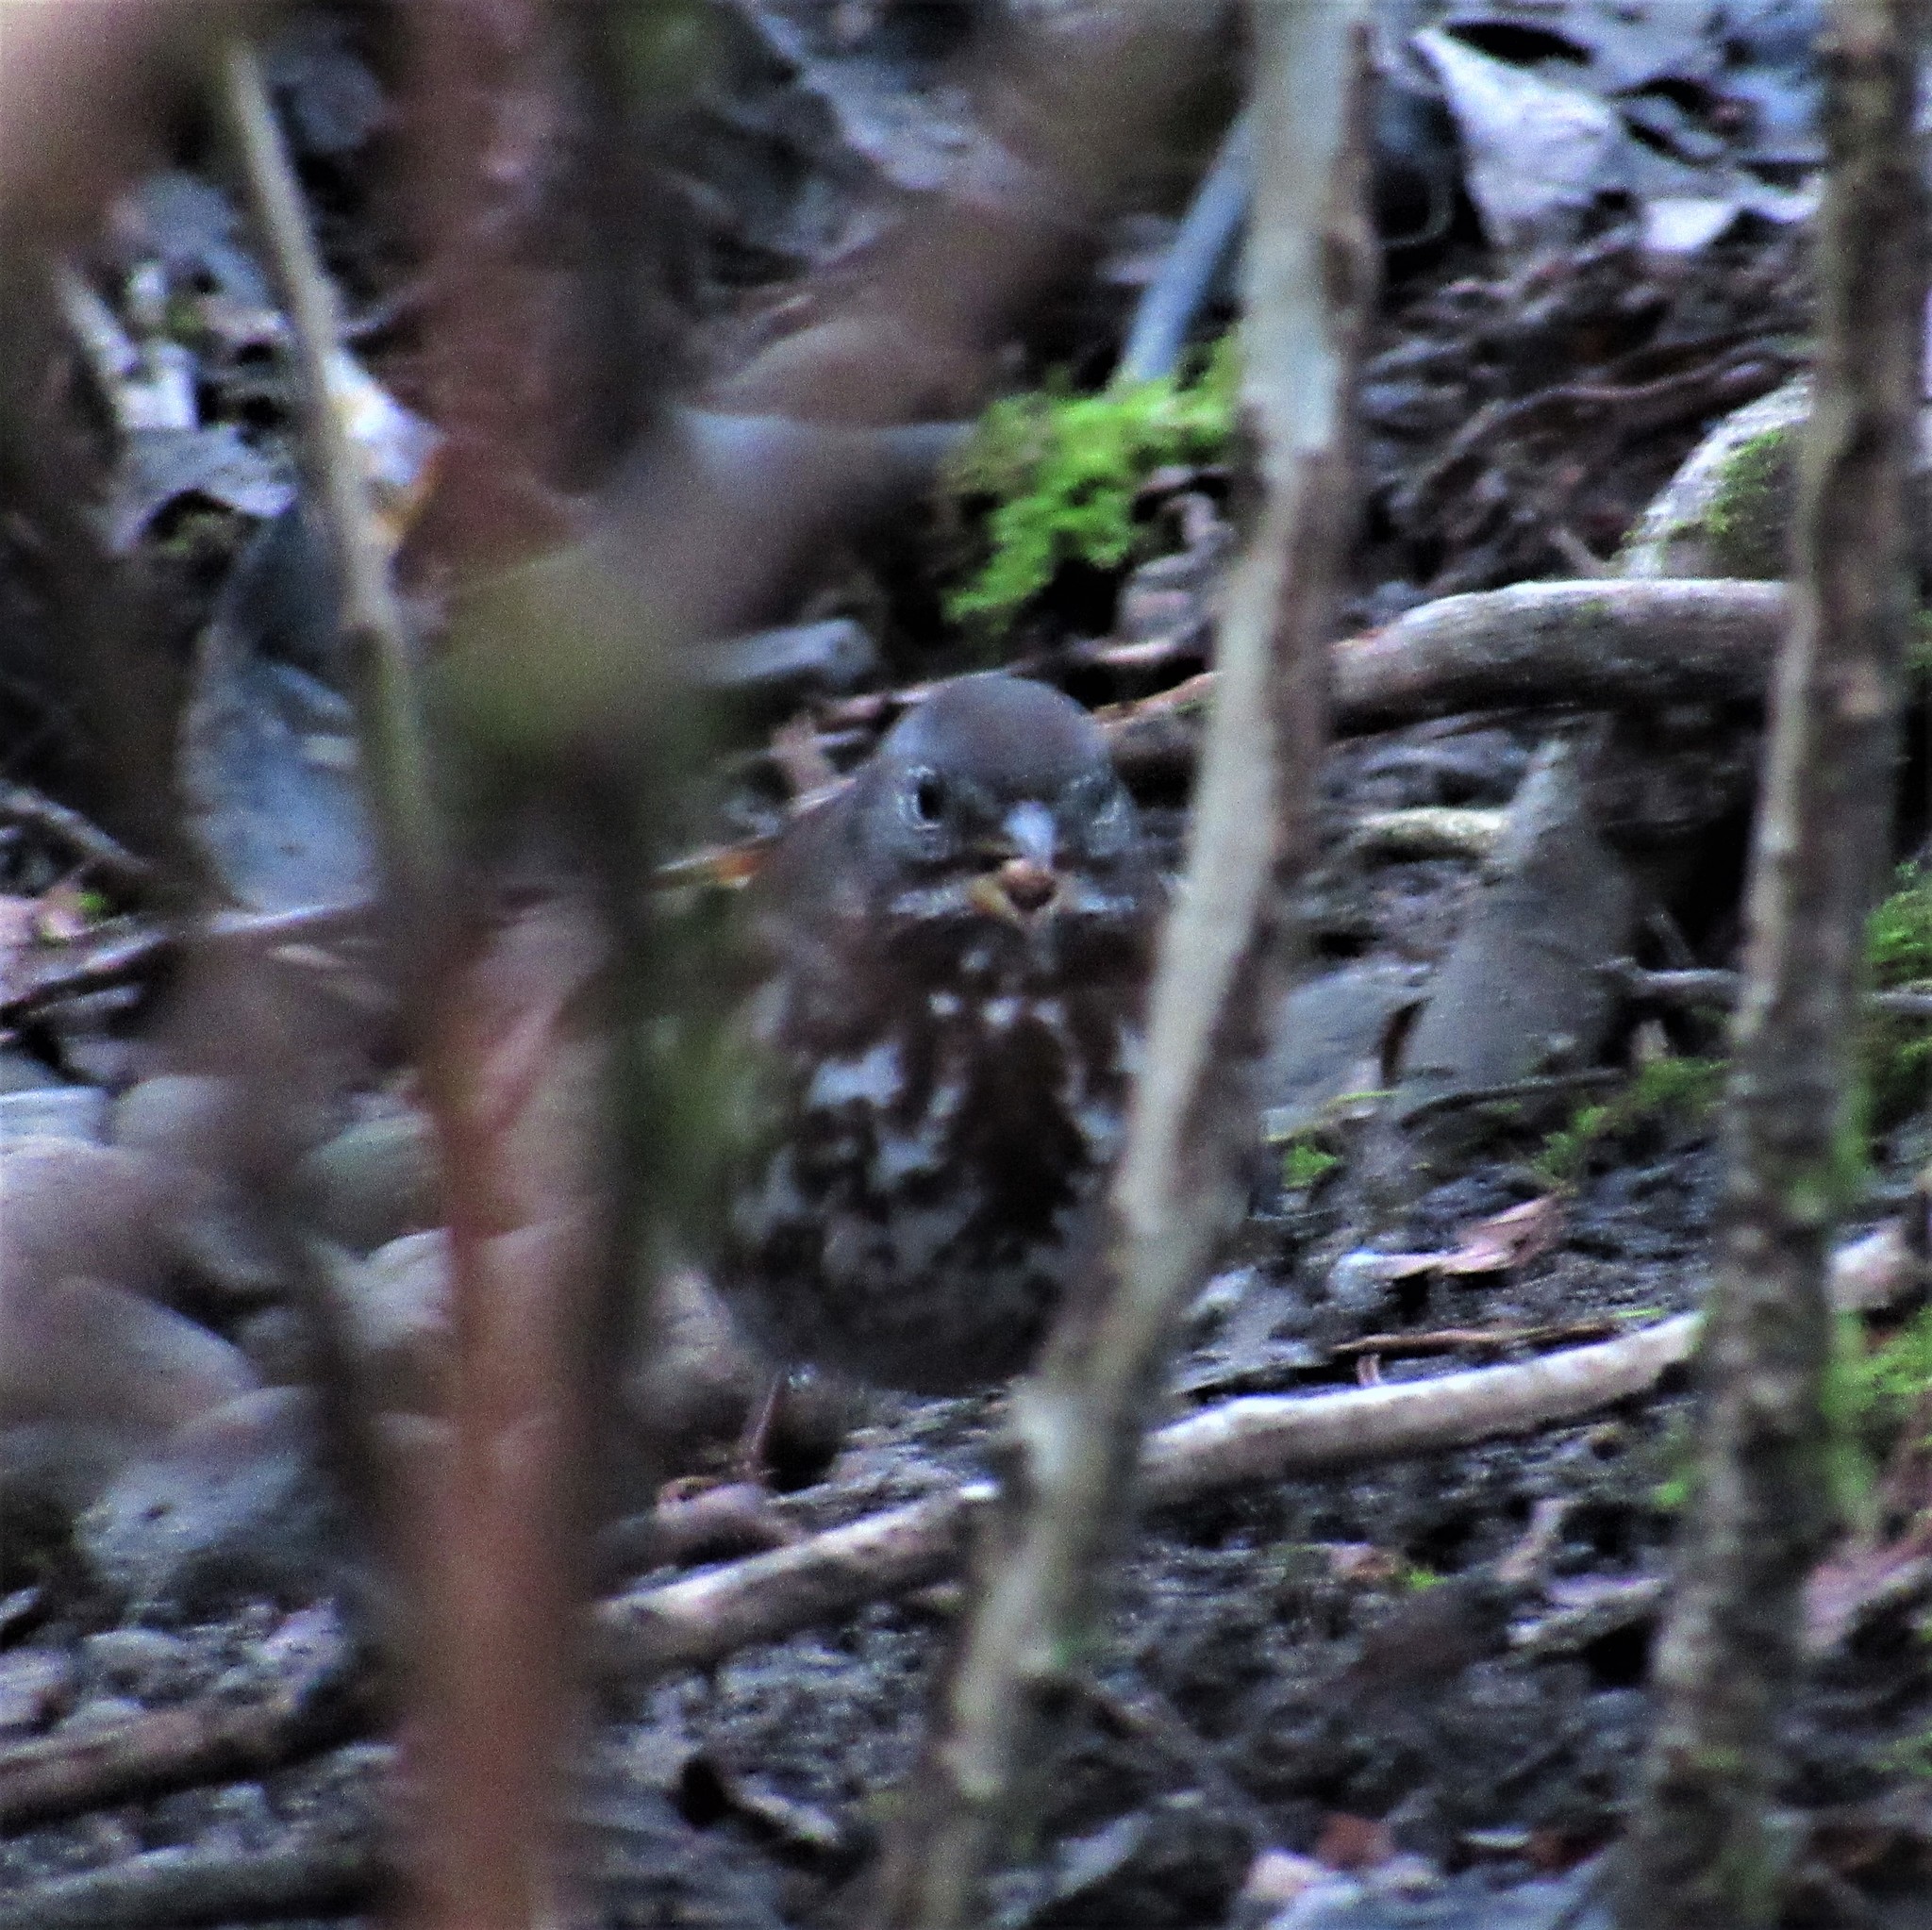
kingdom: Animalia
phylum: Chordata
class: Aves
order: Passeriformes
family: Passerellidae
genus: Passerella
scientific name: Passerella iliaca
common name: Fox sparrow
